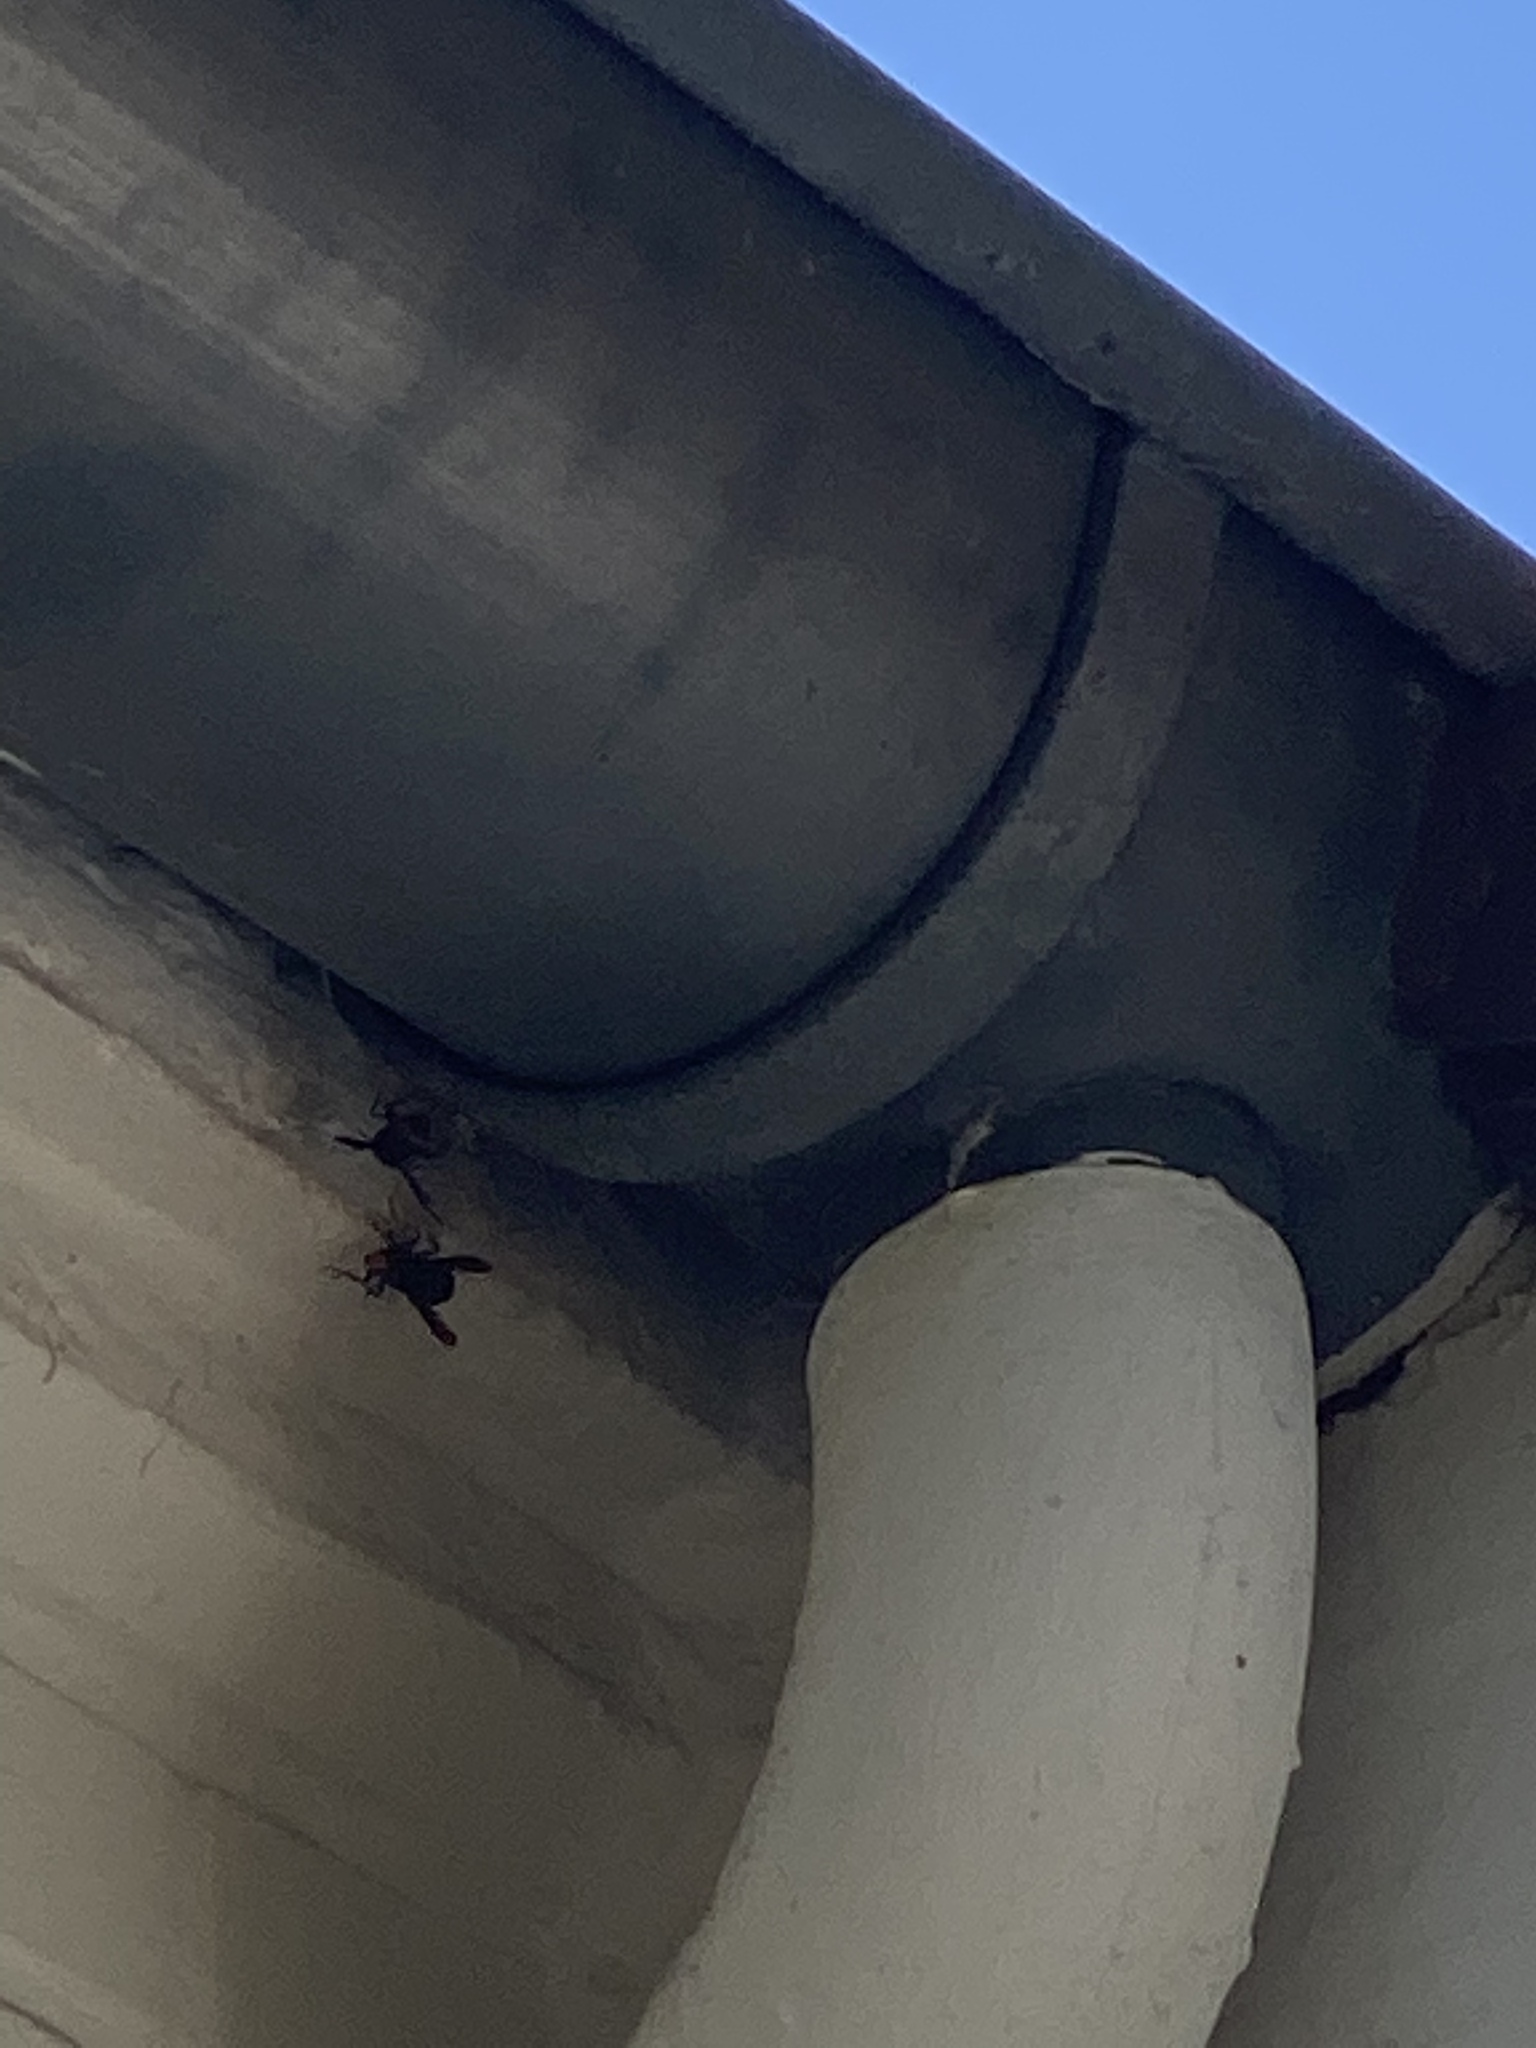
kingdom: Animalia
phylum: Arthropoda
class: Insecta
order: Hymenoptera
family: Vespidae
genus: Vespa
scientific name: Vespa velutina
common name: Asian hornet
